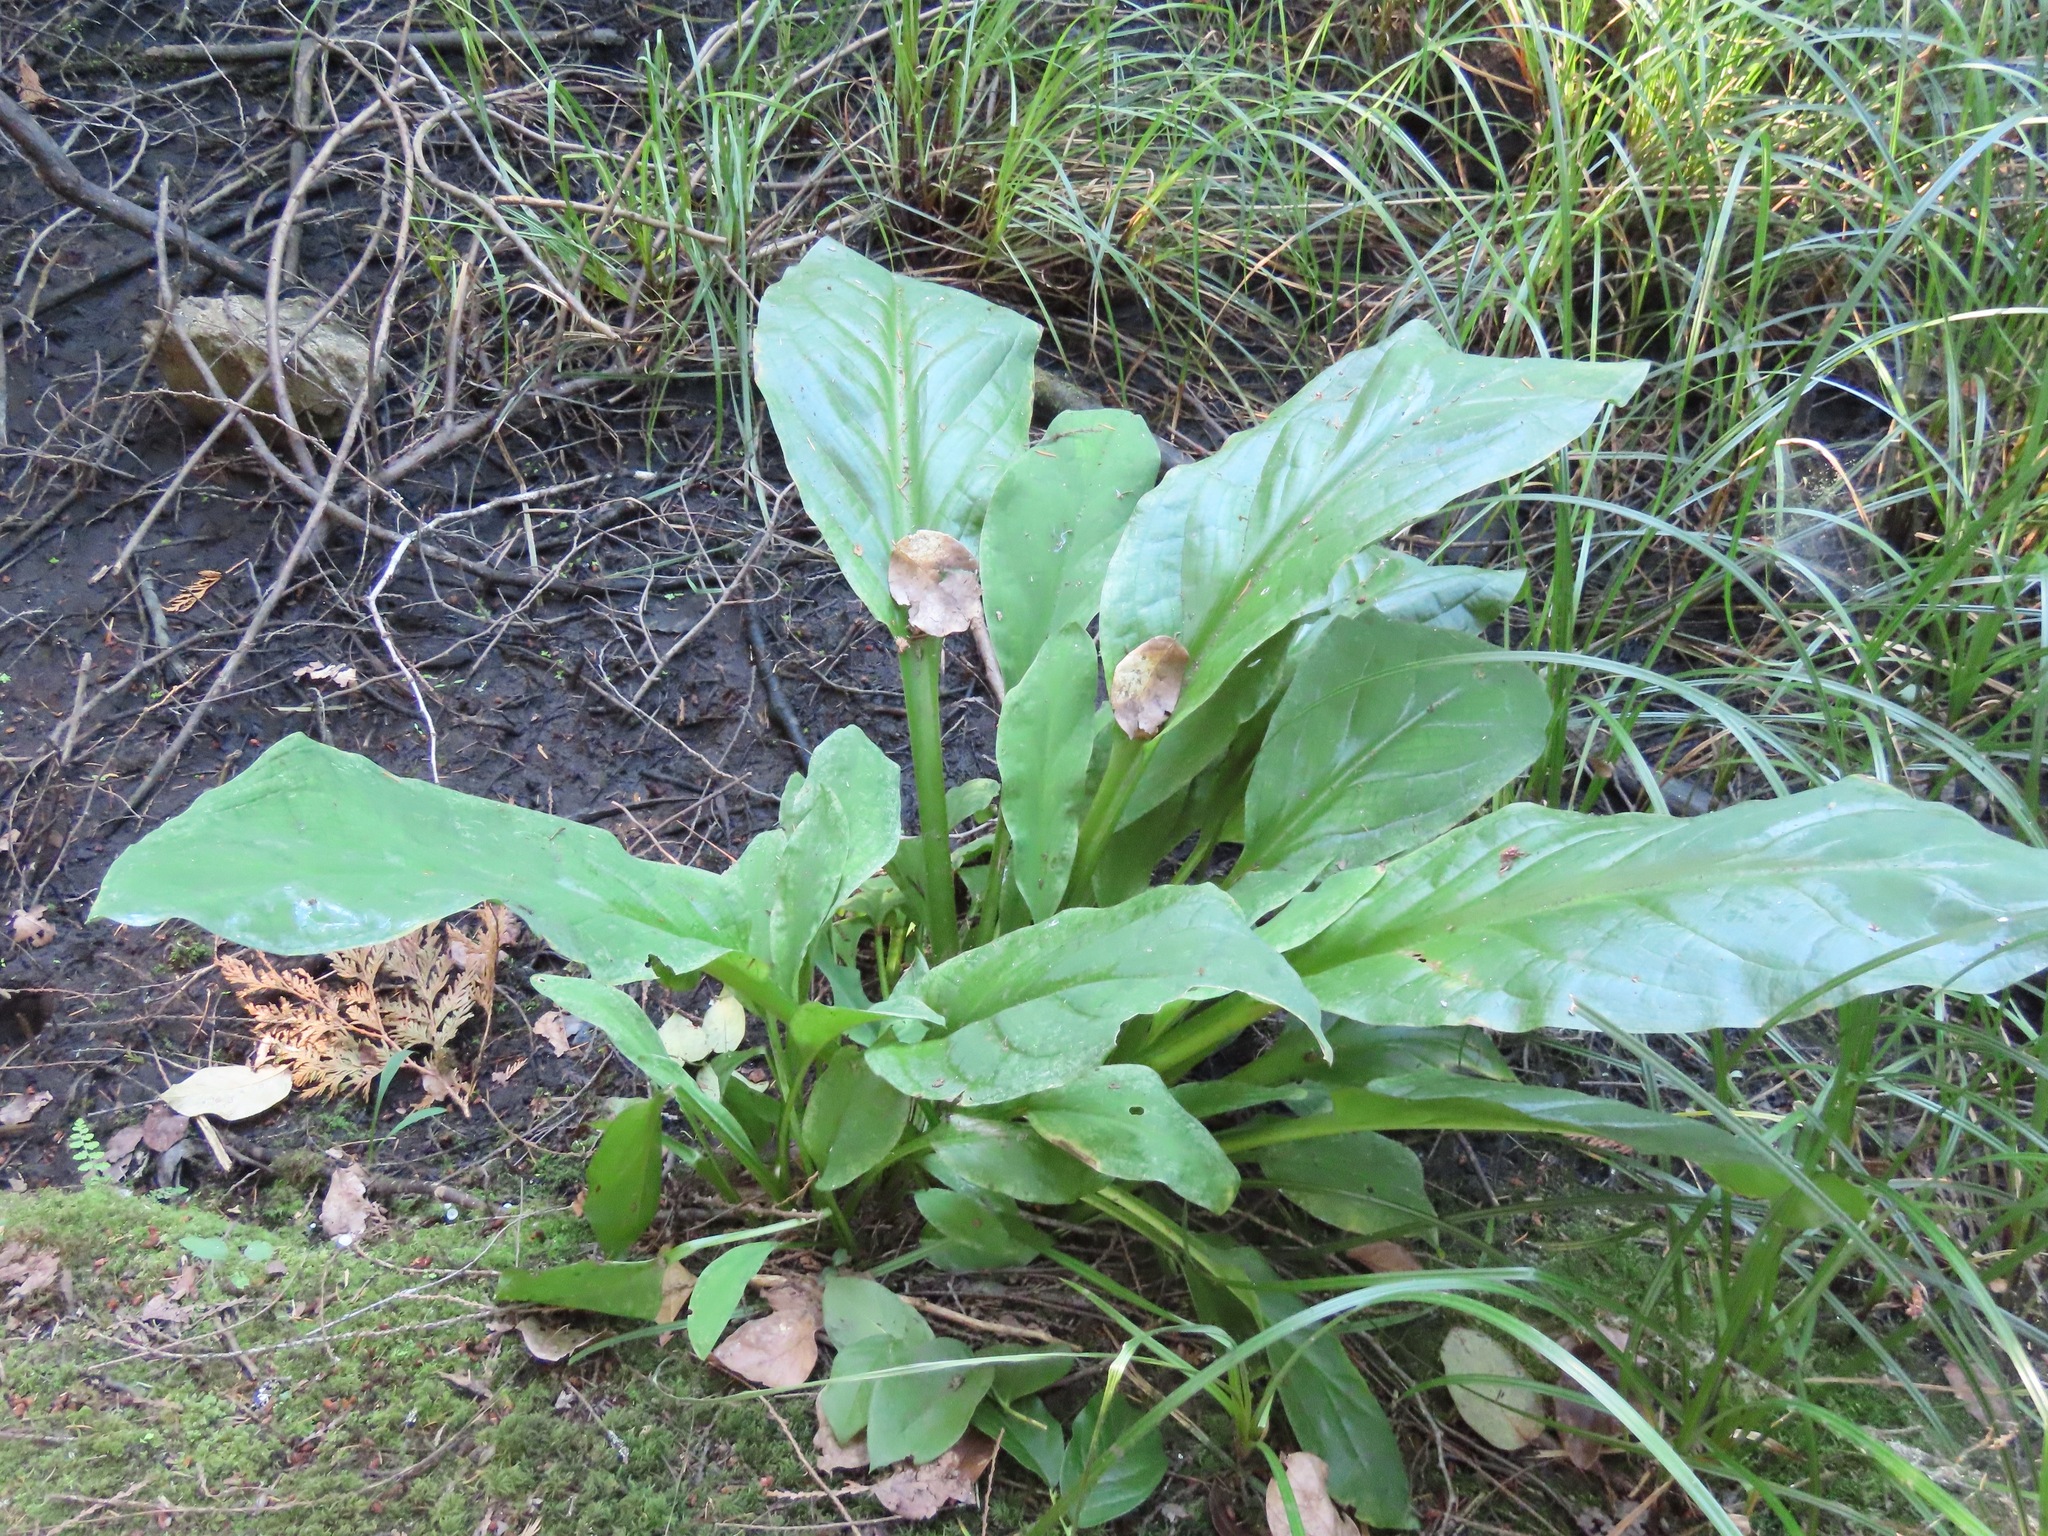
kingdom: Plantae
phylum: Tracheophyta
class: Liliopsida
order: Alismatales
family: Araceae
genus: Lysichiton
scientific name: Lysichiton americanus
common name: American skunk cabbage
